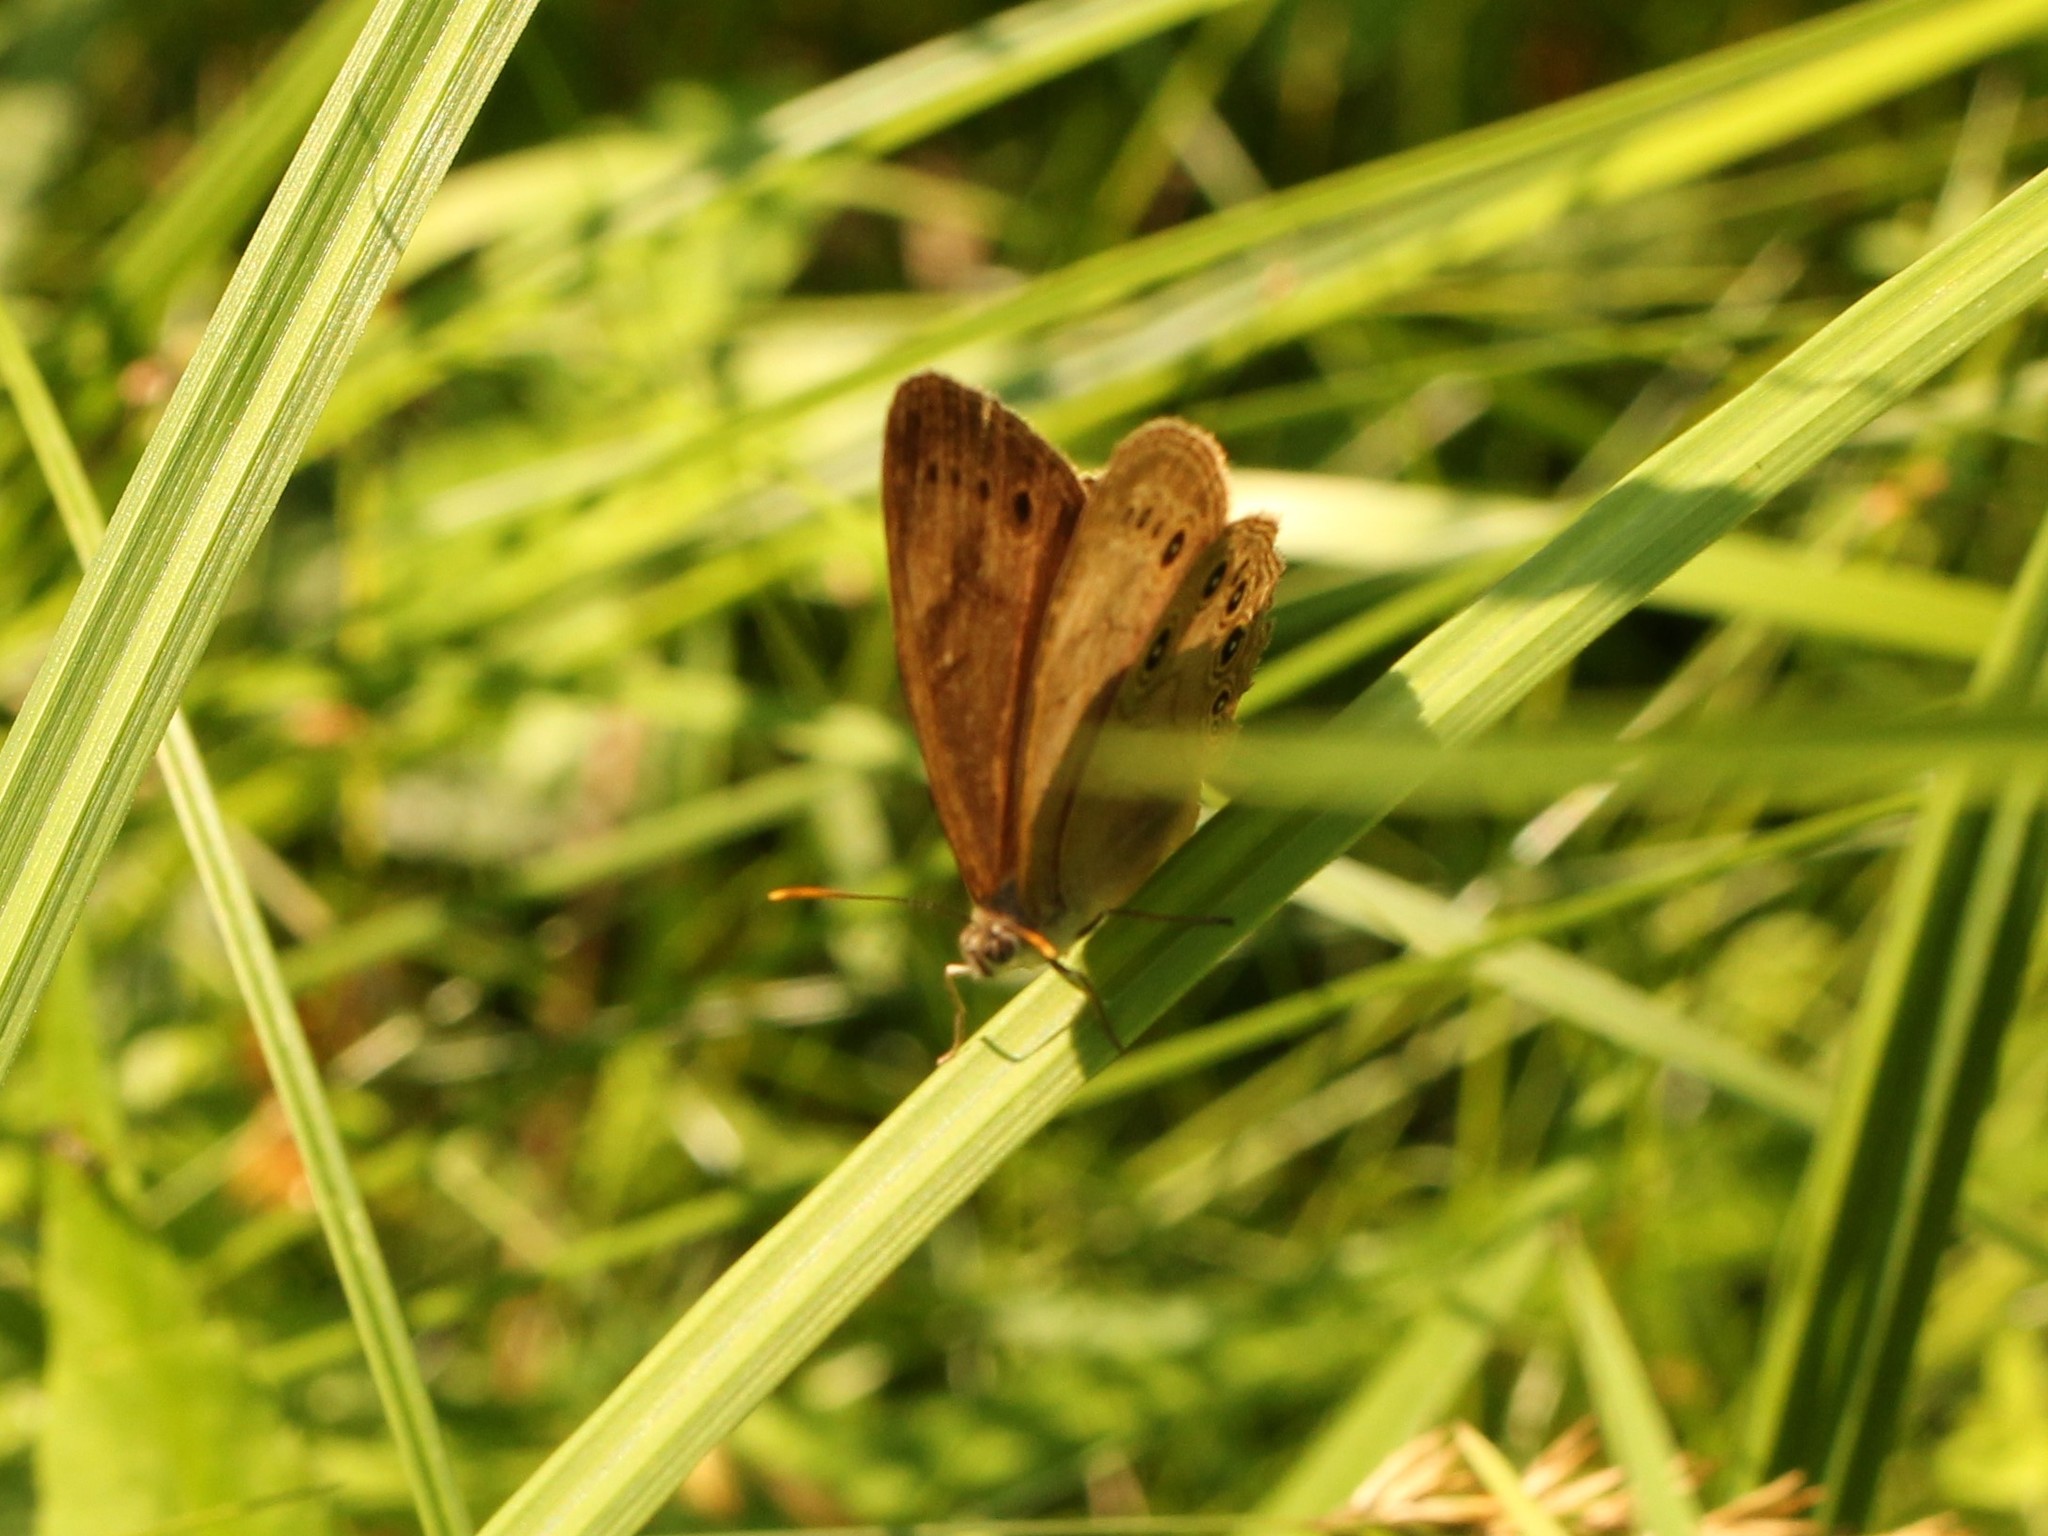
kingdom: Animalia
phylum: Arthropoda
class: Insecta
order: Lepidoptera
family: Nymphalidae
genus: Lethe
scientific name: Lethe eurydice
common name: Eyed brown
